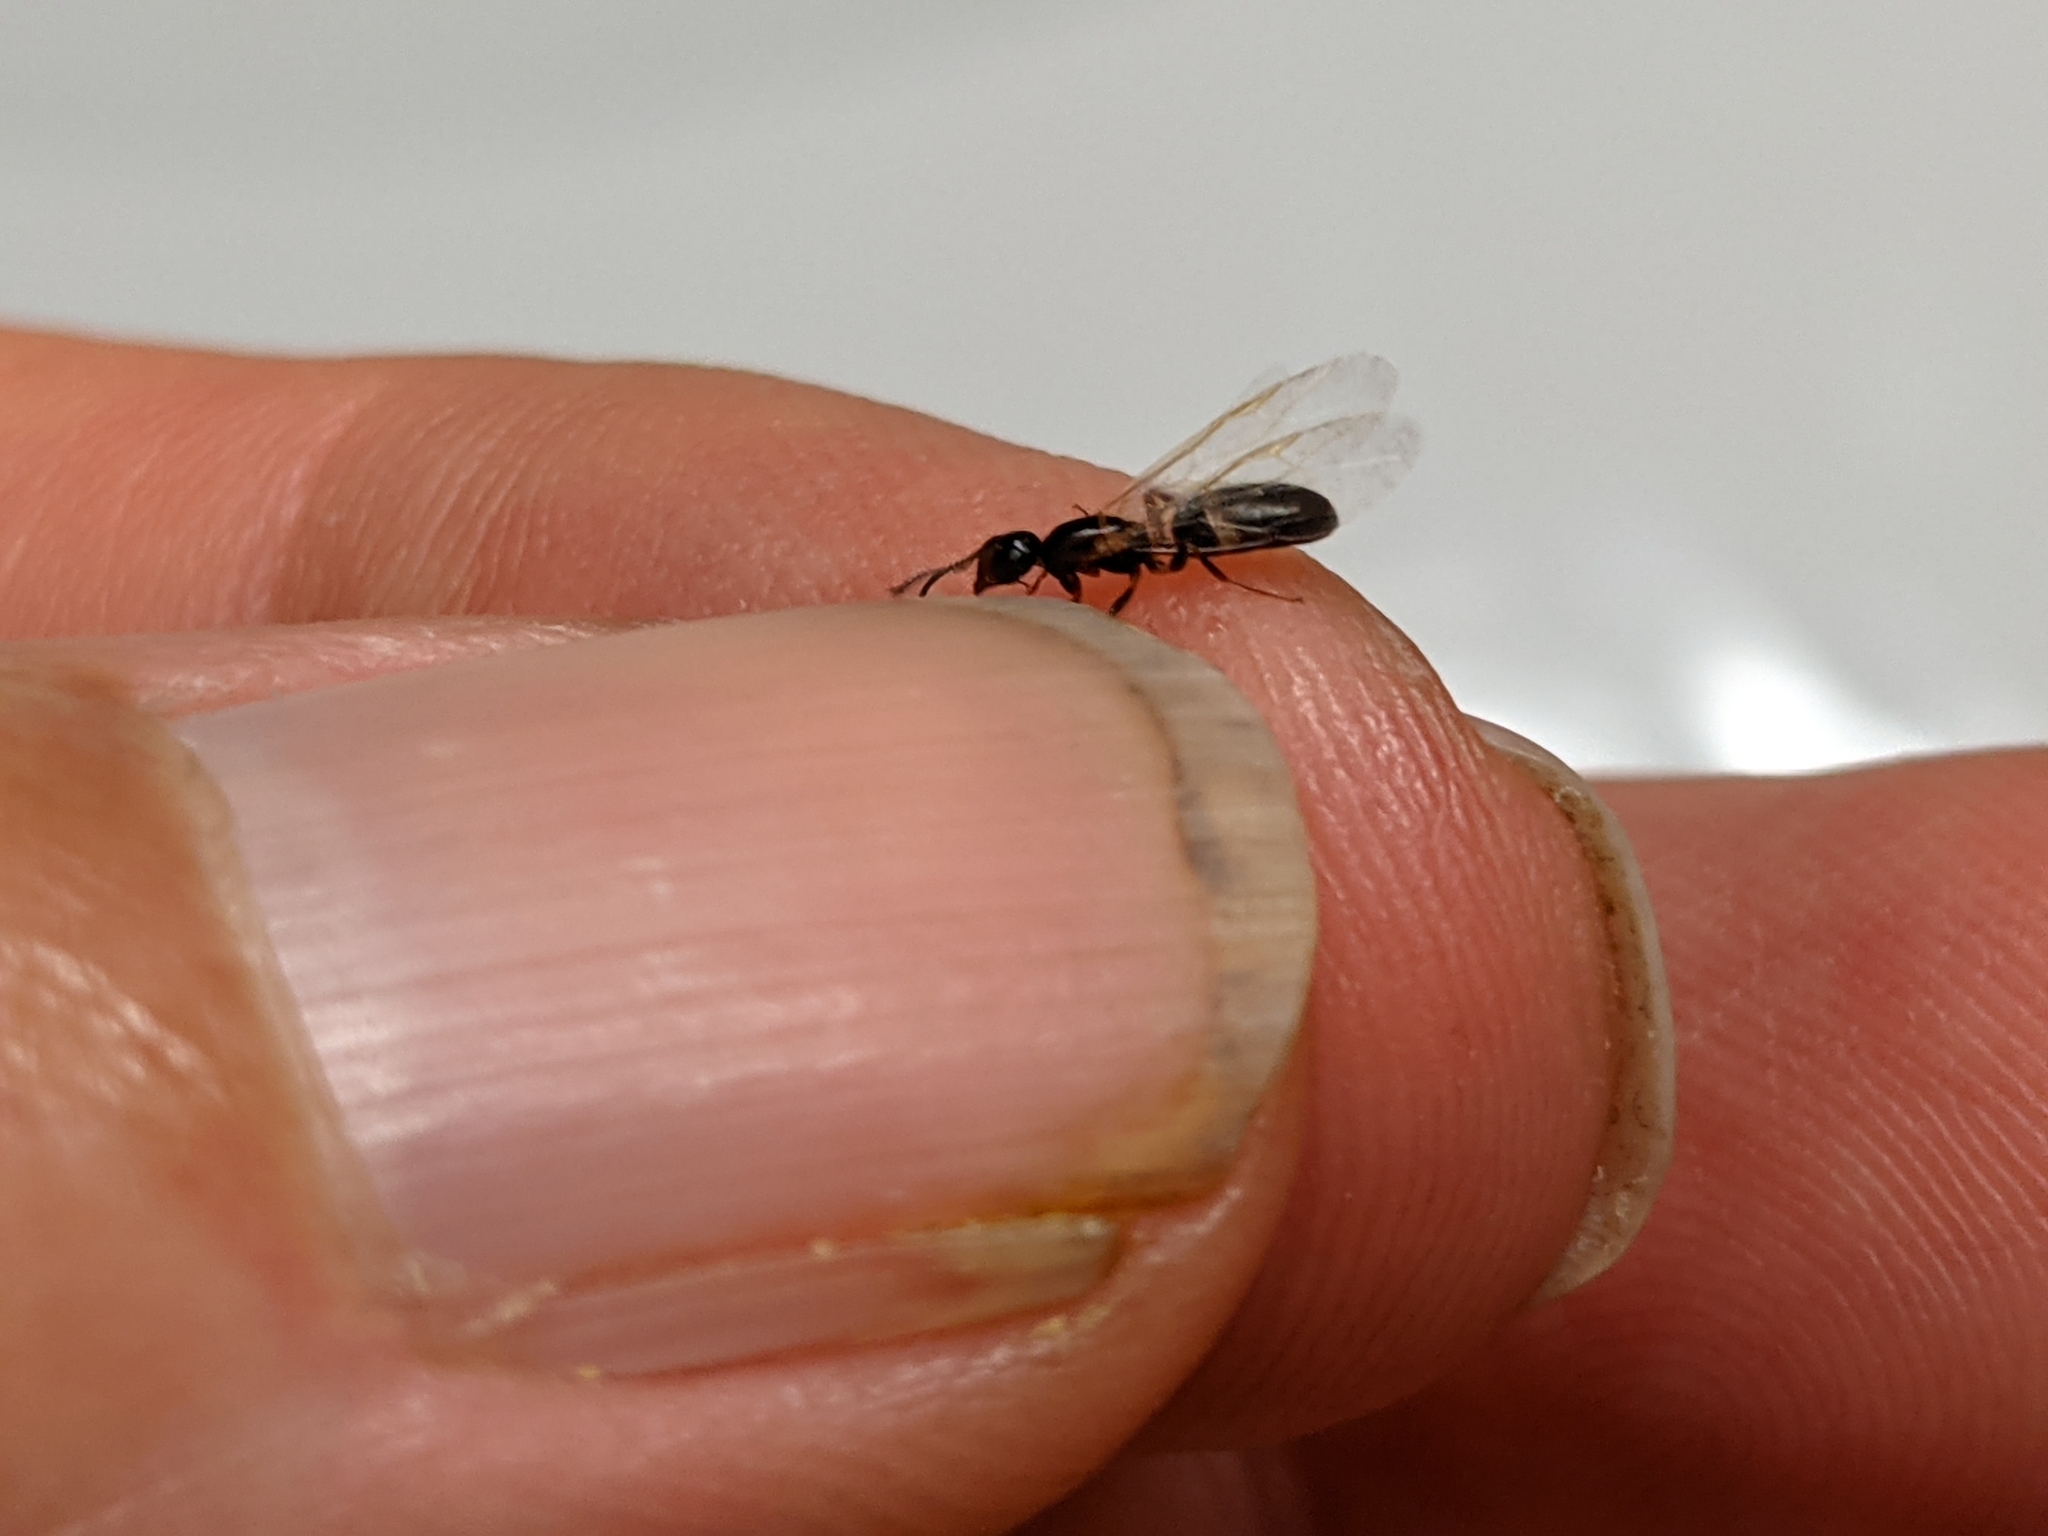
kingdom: Animalia
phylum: Arthropoda
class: Insecta
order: Hymenoptera
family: Formicidae
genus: Camponotus
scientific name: Camponotus truncatus
